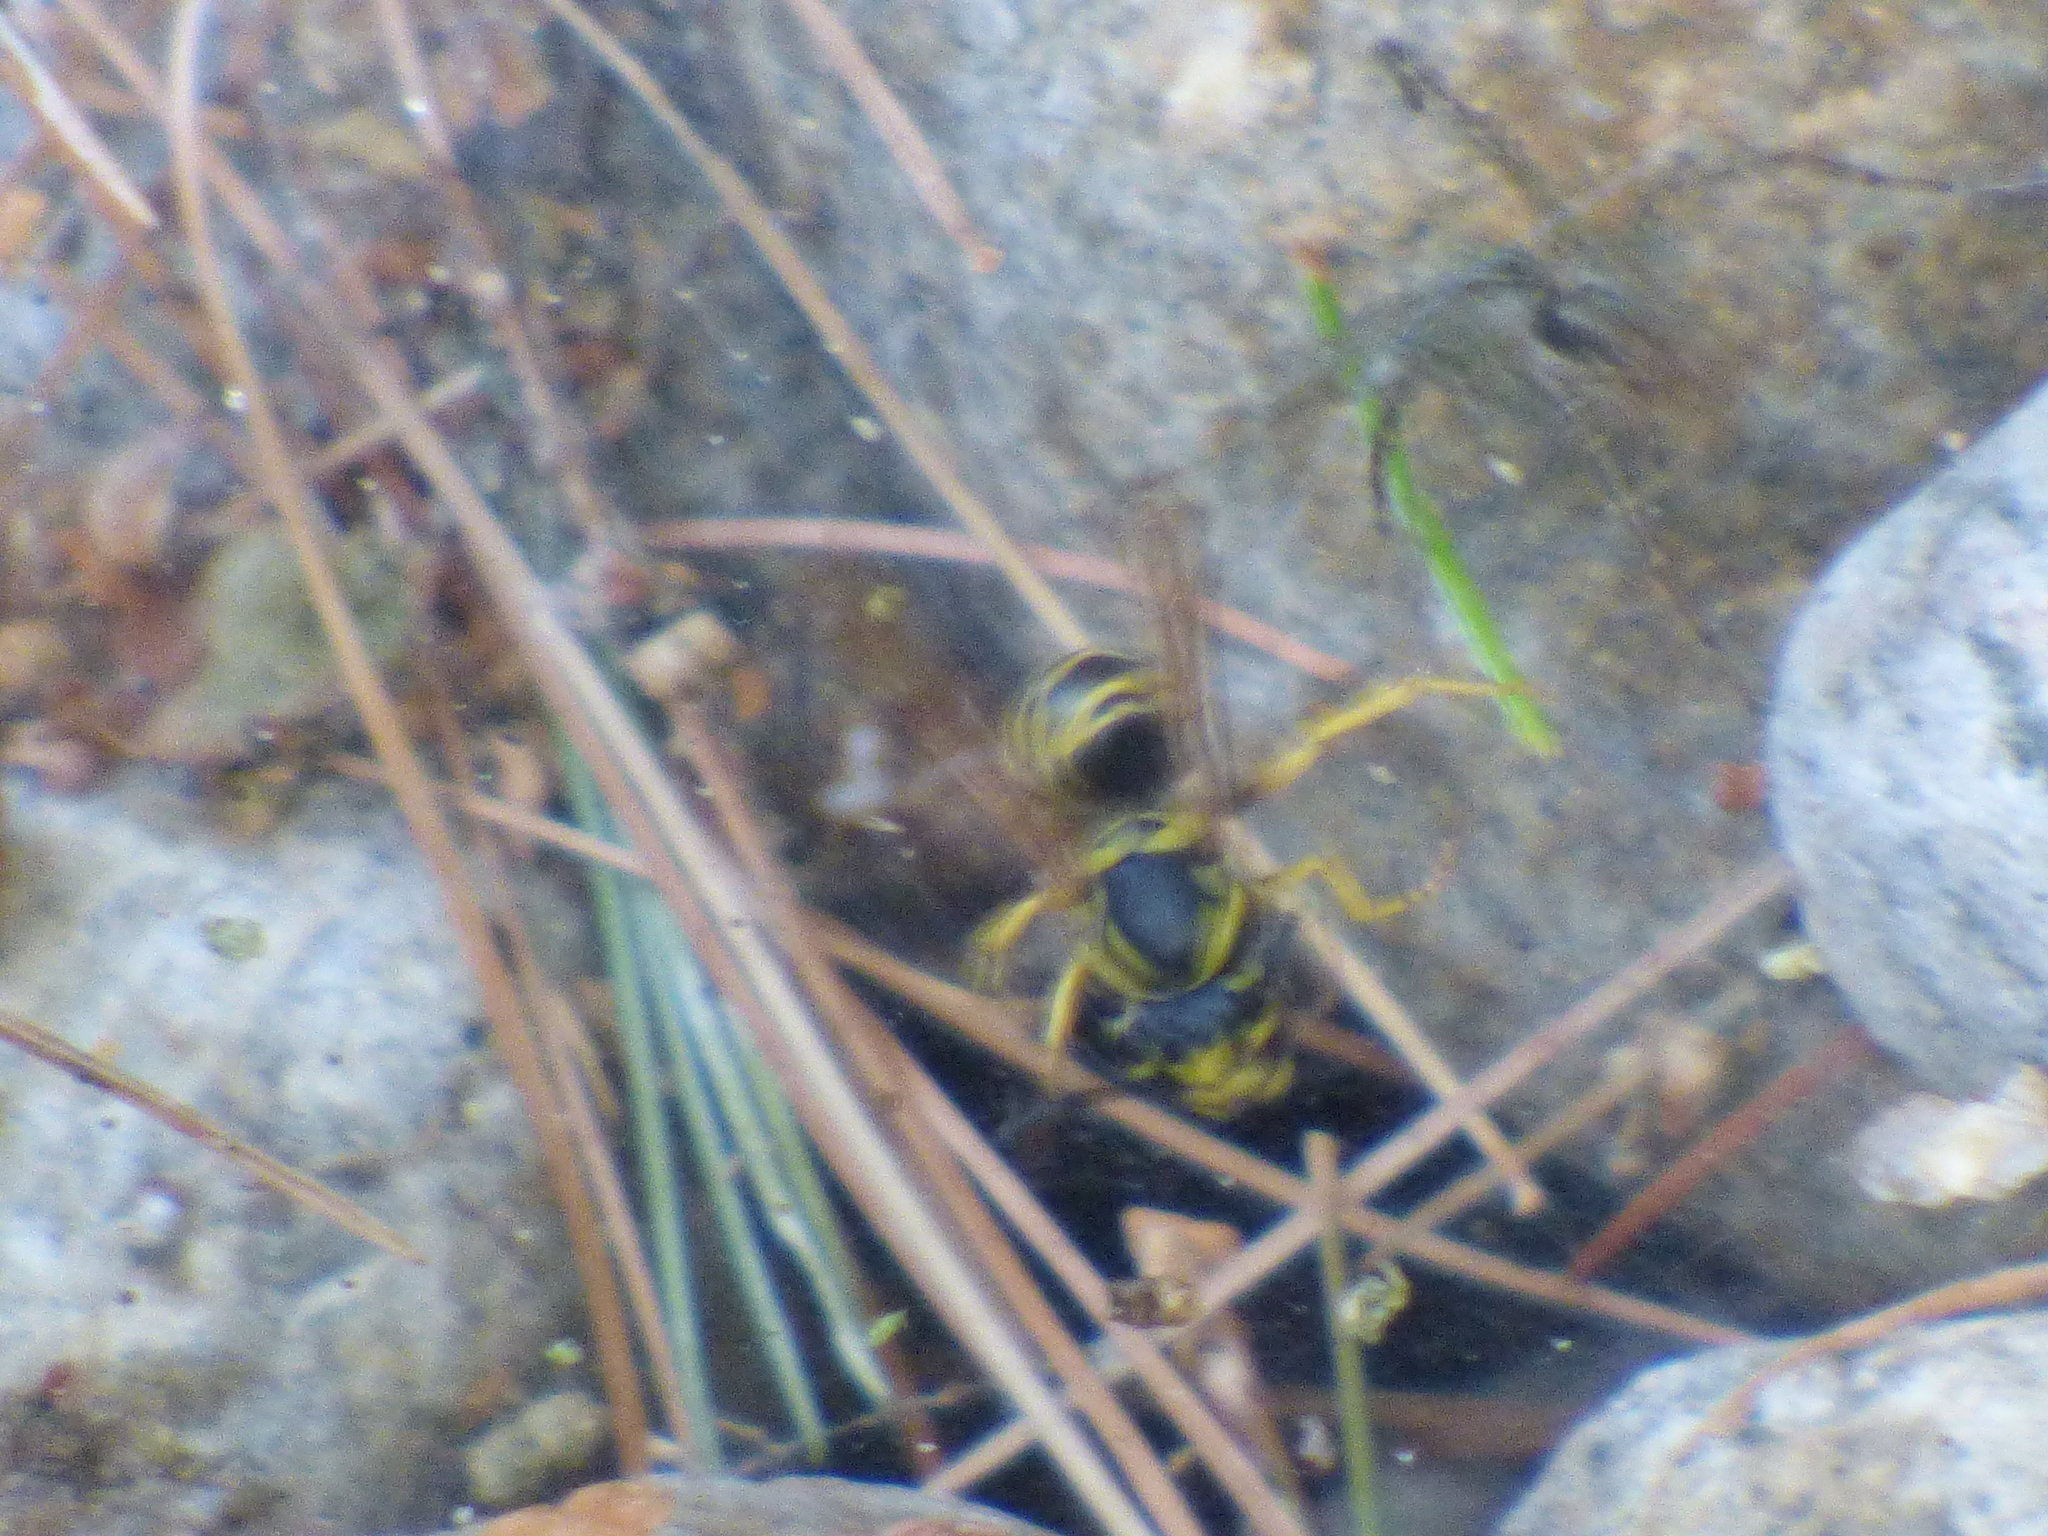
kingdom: Animalia
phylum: Arthropoda
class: Insecta
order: Hymenoptera
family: Vespidae
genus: Vespula
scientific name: Vespula maculifrons
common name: Eastern yellowjacket
